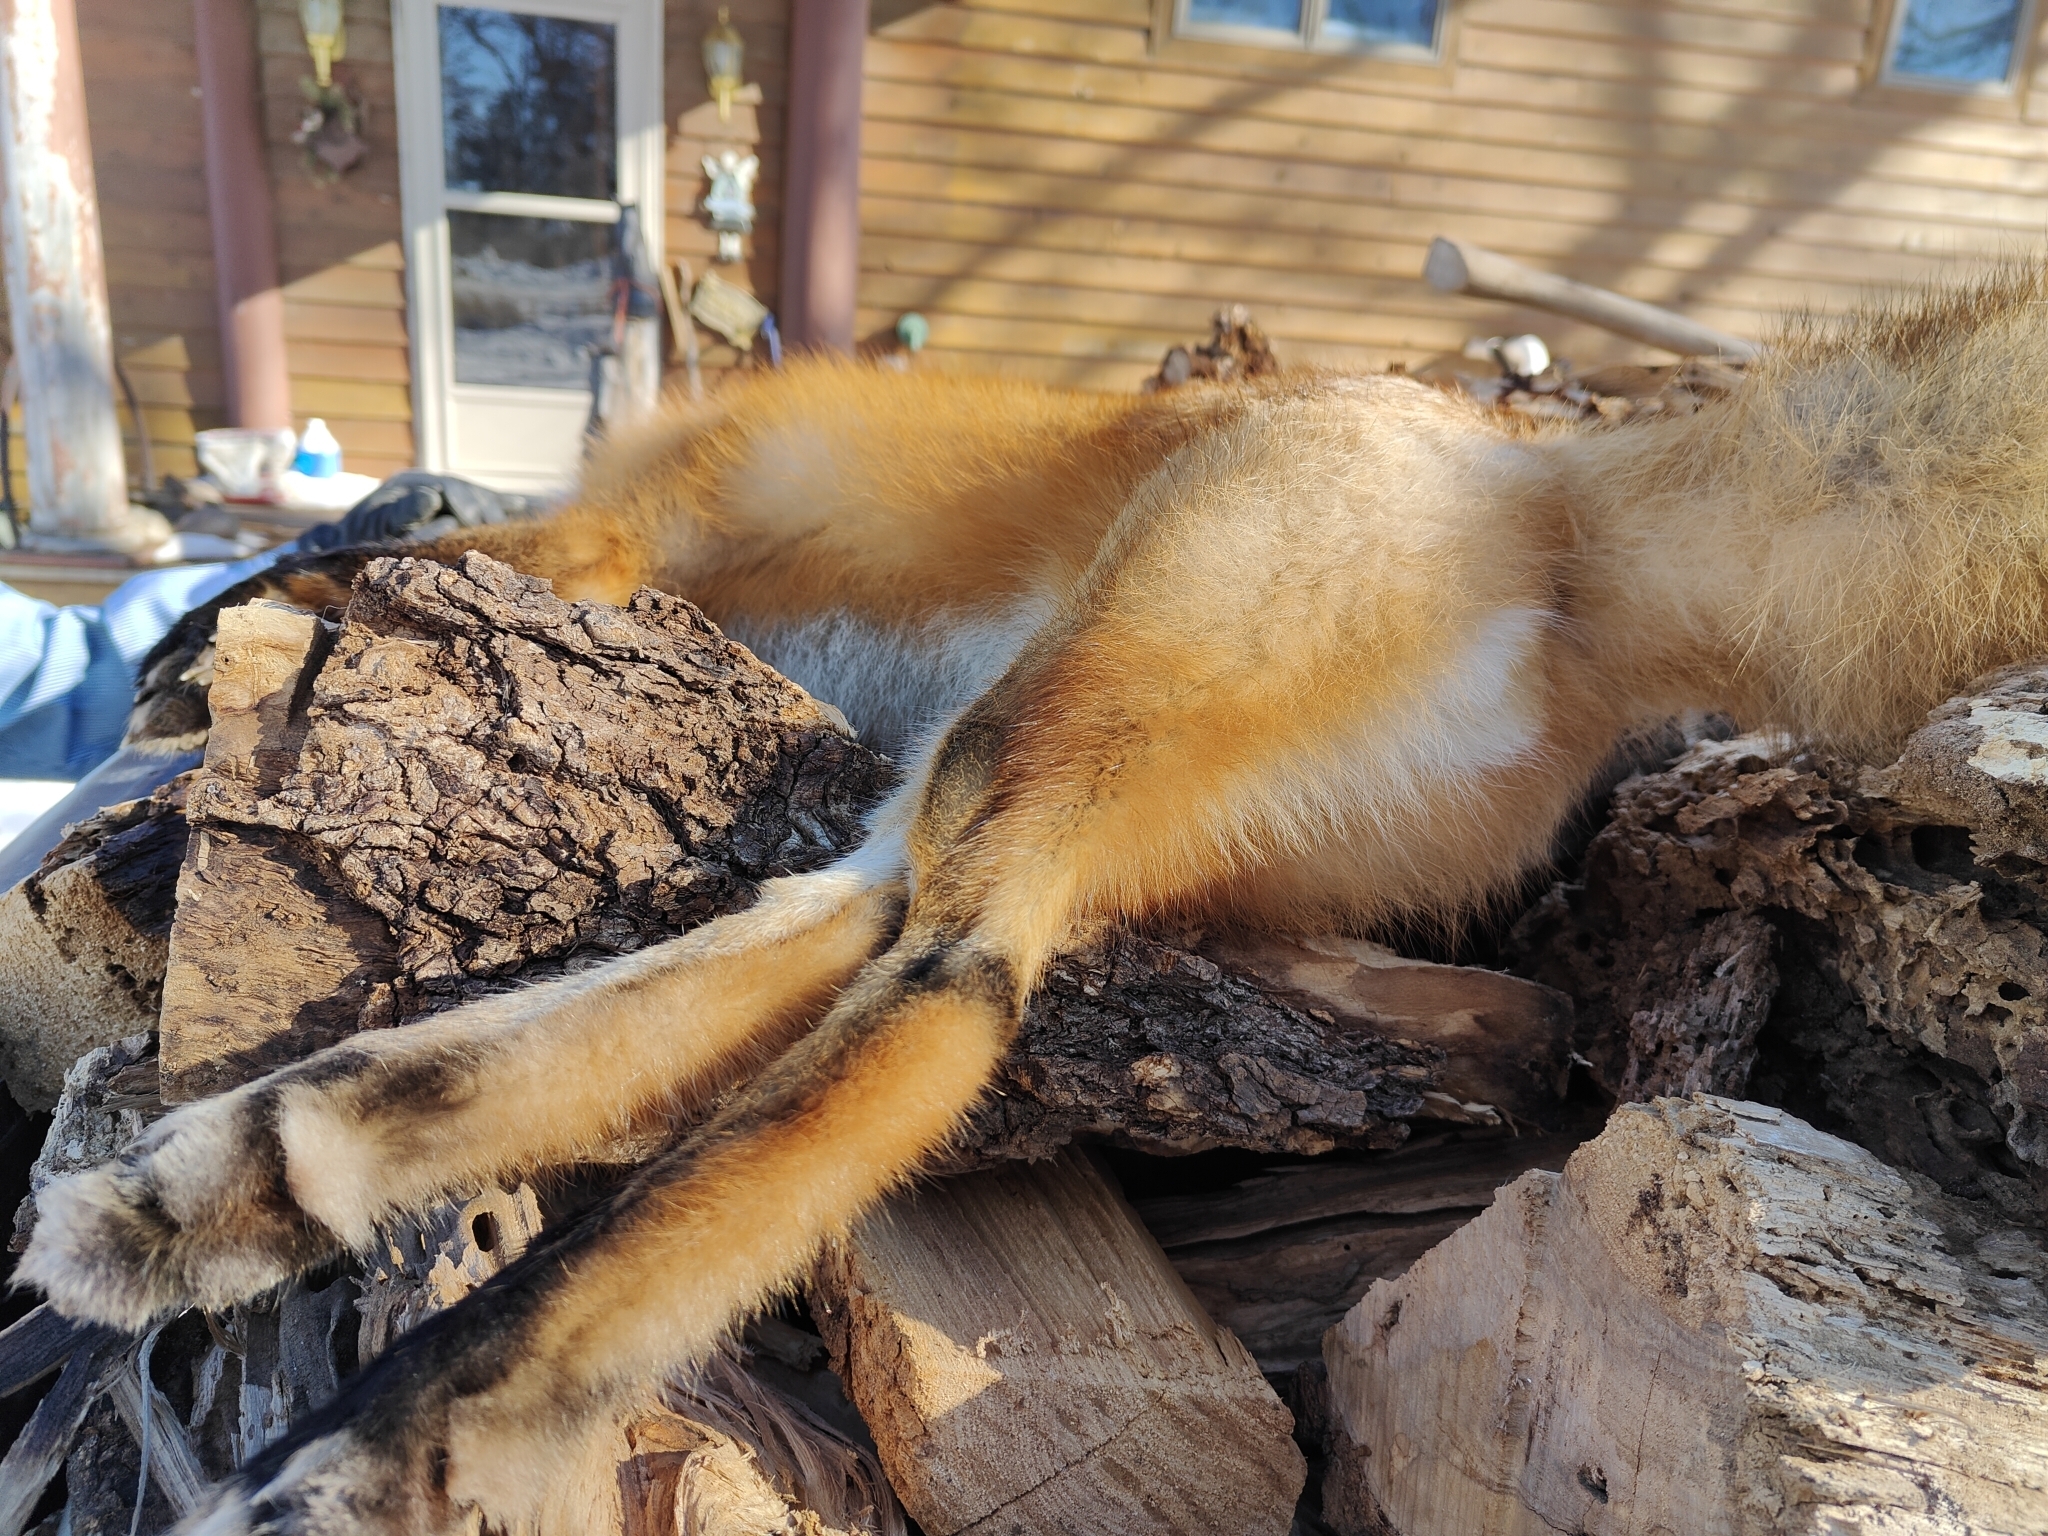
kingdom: Animalia
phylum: Chordata
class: Mammalia
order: Carnivora
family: Canidae
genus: Vulpes
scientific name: Vulpes vulpes
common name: Red fox
